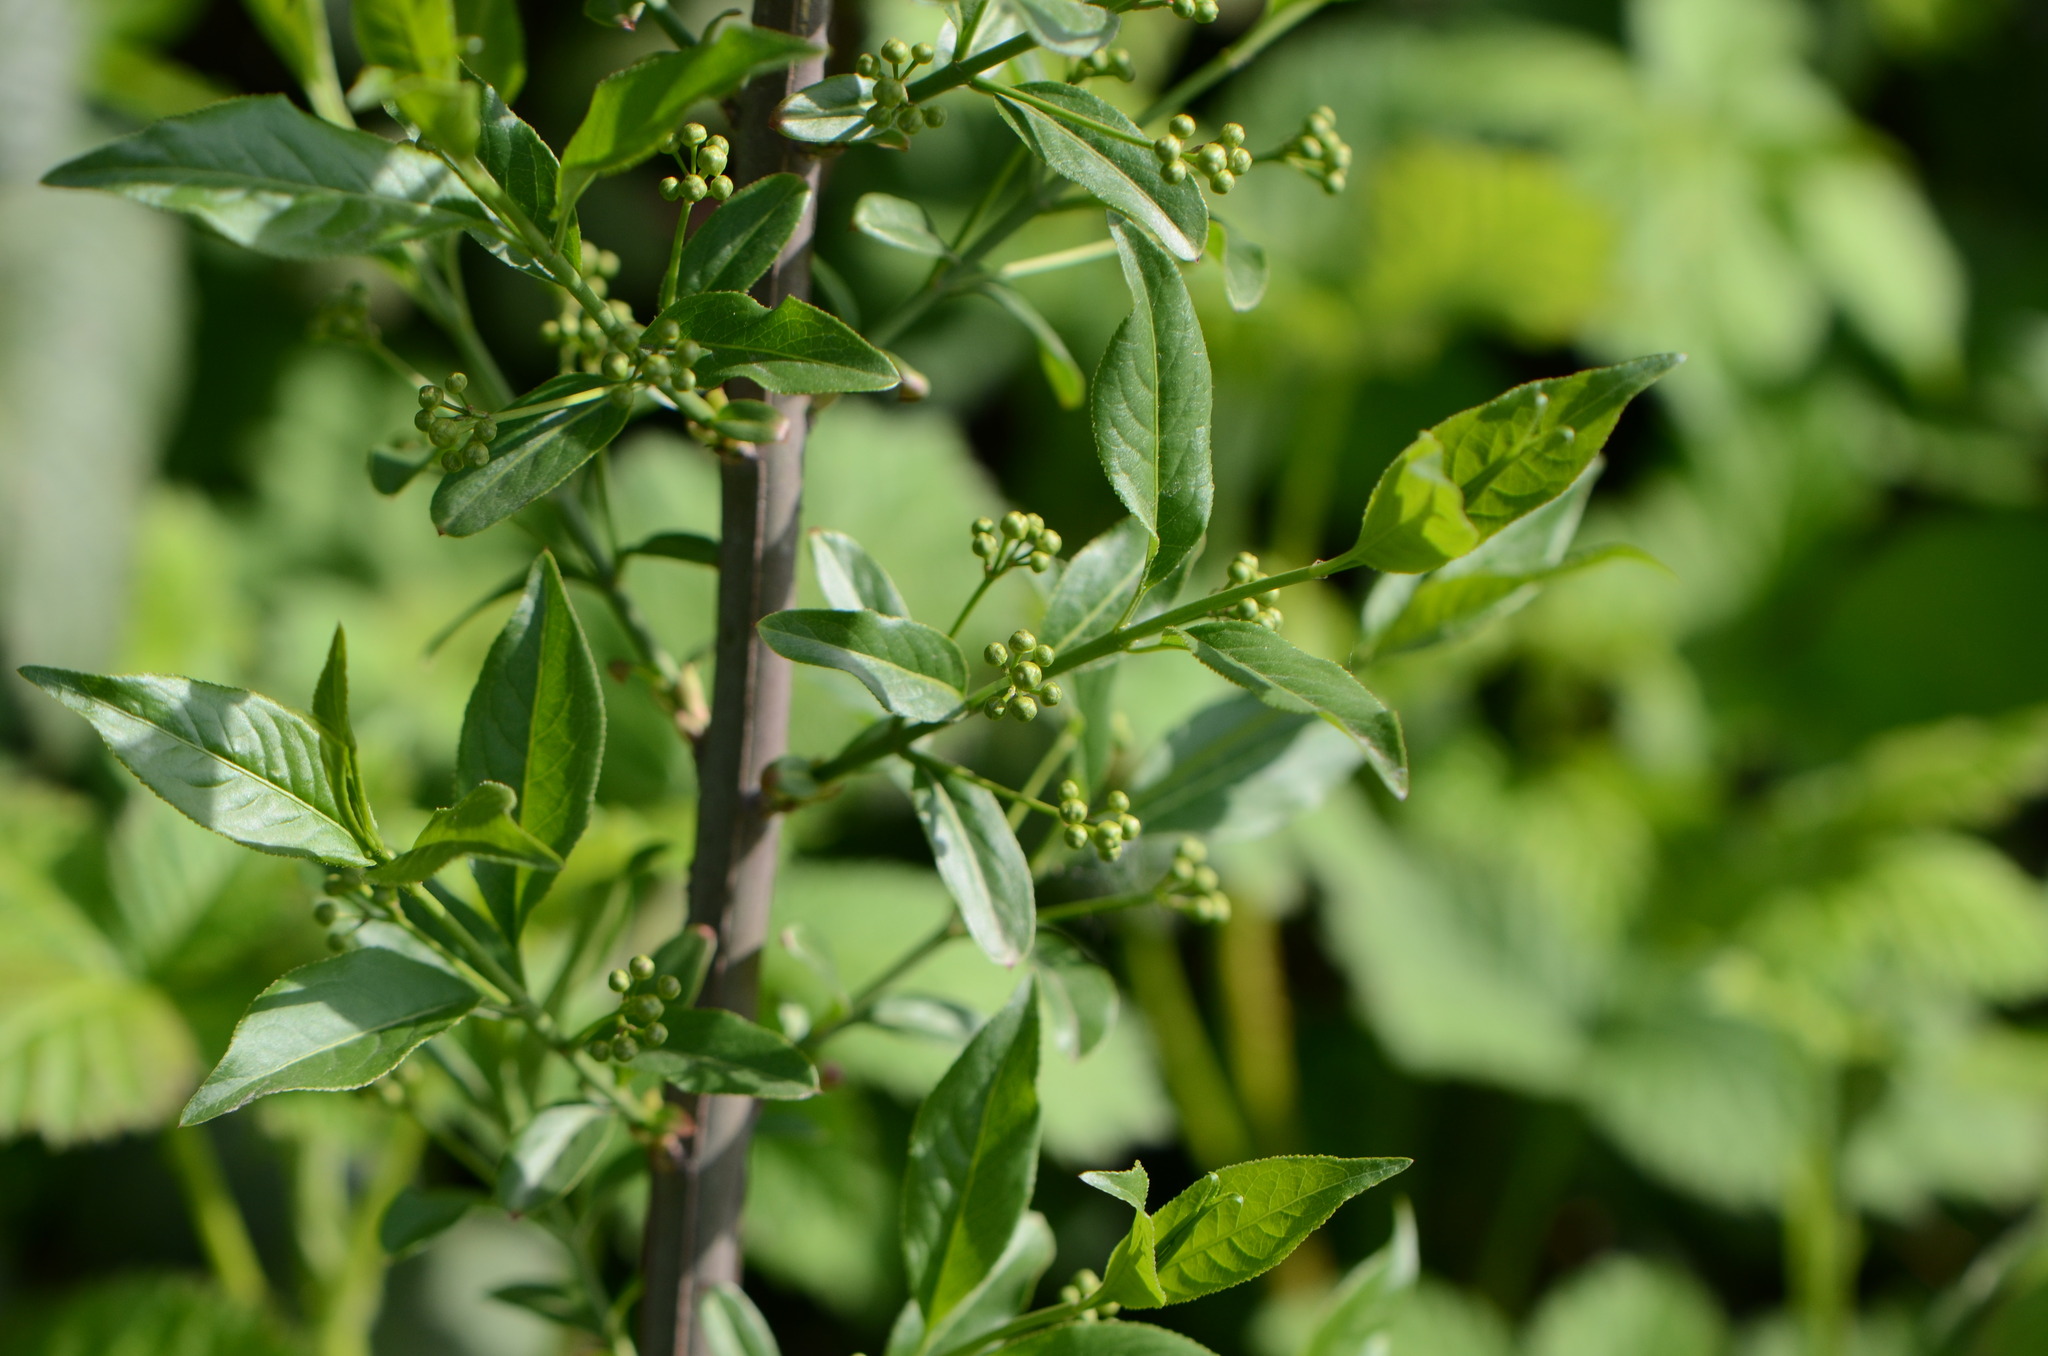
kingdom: Plantae
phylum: Tracheophyta
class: Magnoliopsida
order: Celastrales
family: Celastraceae
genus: Euonymus
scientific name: Euonymus europaeus
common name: Spindle
